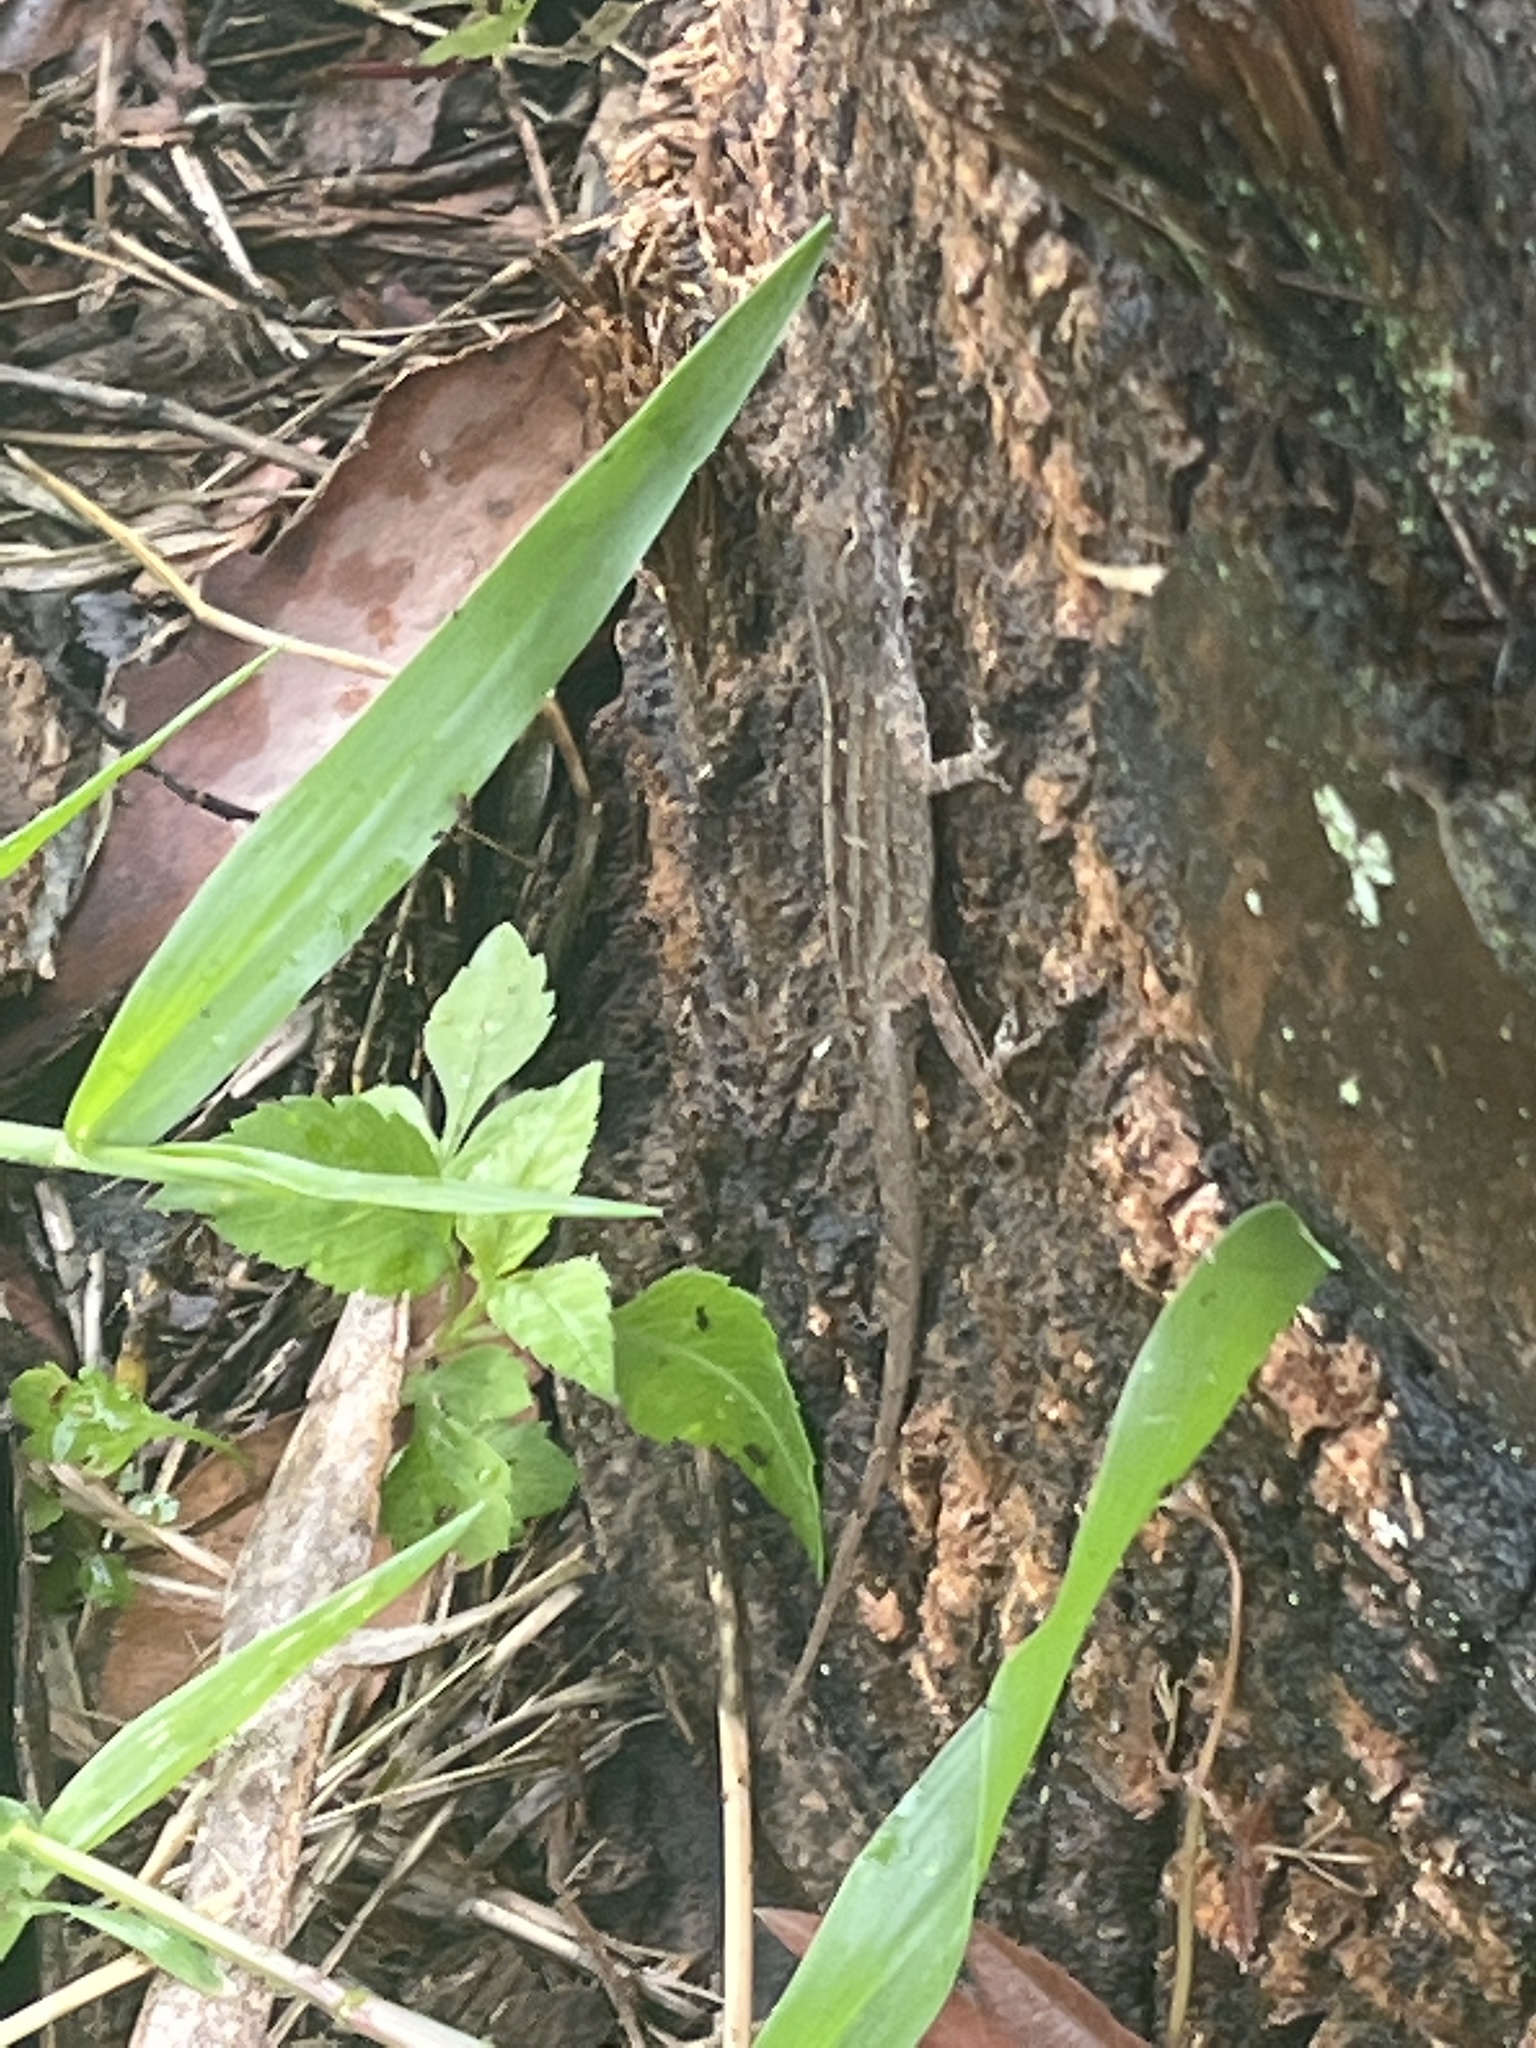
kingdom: Animalia
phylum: Chordata
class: Squamata
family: Dactyloidae
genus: Anolis
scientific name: Anolis sagrei
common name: Brown anole
